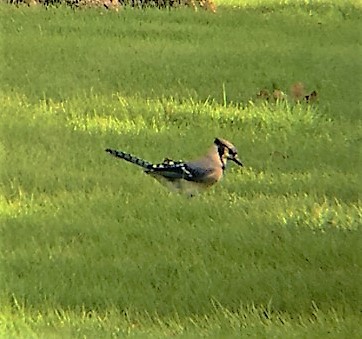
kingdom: Animalia
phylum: Chordata
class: Aves
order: Passeriformes
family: Corvidae
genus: Cyanocitta
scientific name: Cyanocitta cristata
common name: Blue jay
